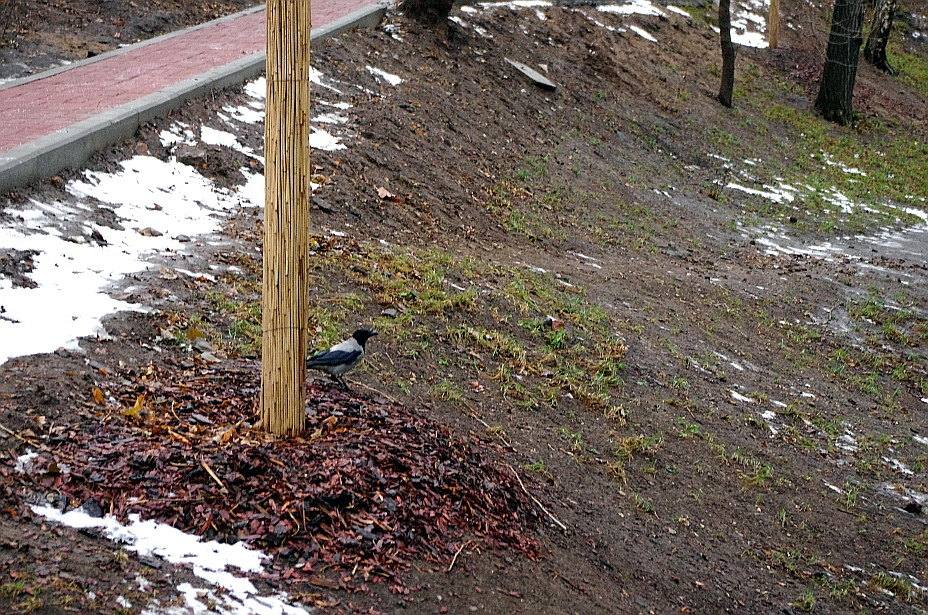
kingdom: Animalia
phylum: Chordata
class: Aves
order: Passeriformes
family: Corvidae
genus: Corvus
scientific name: Corvus cornix
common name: Hooded crow
